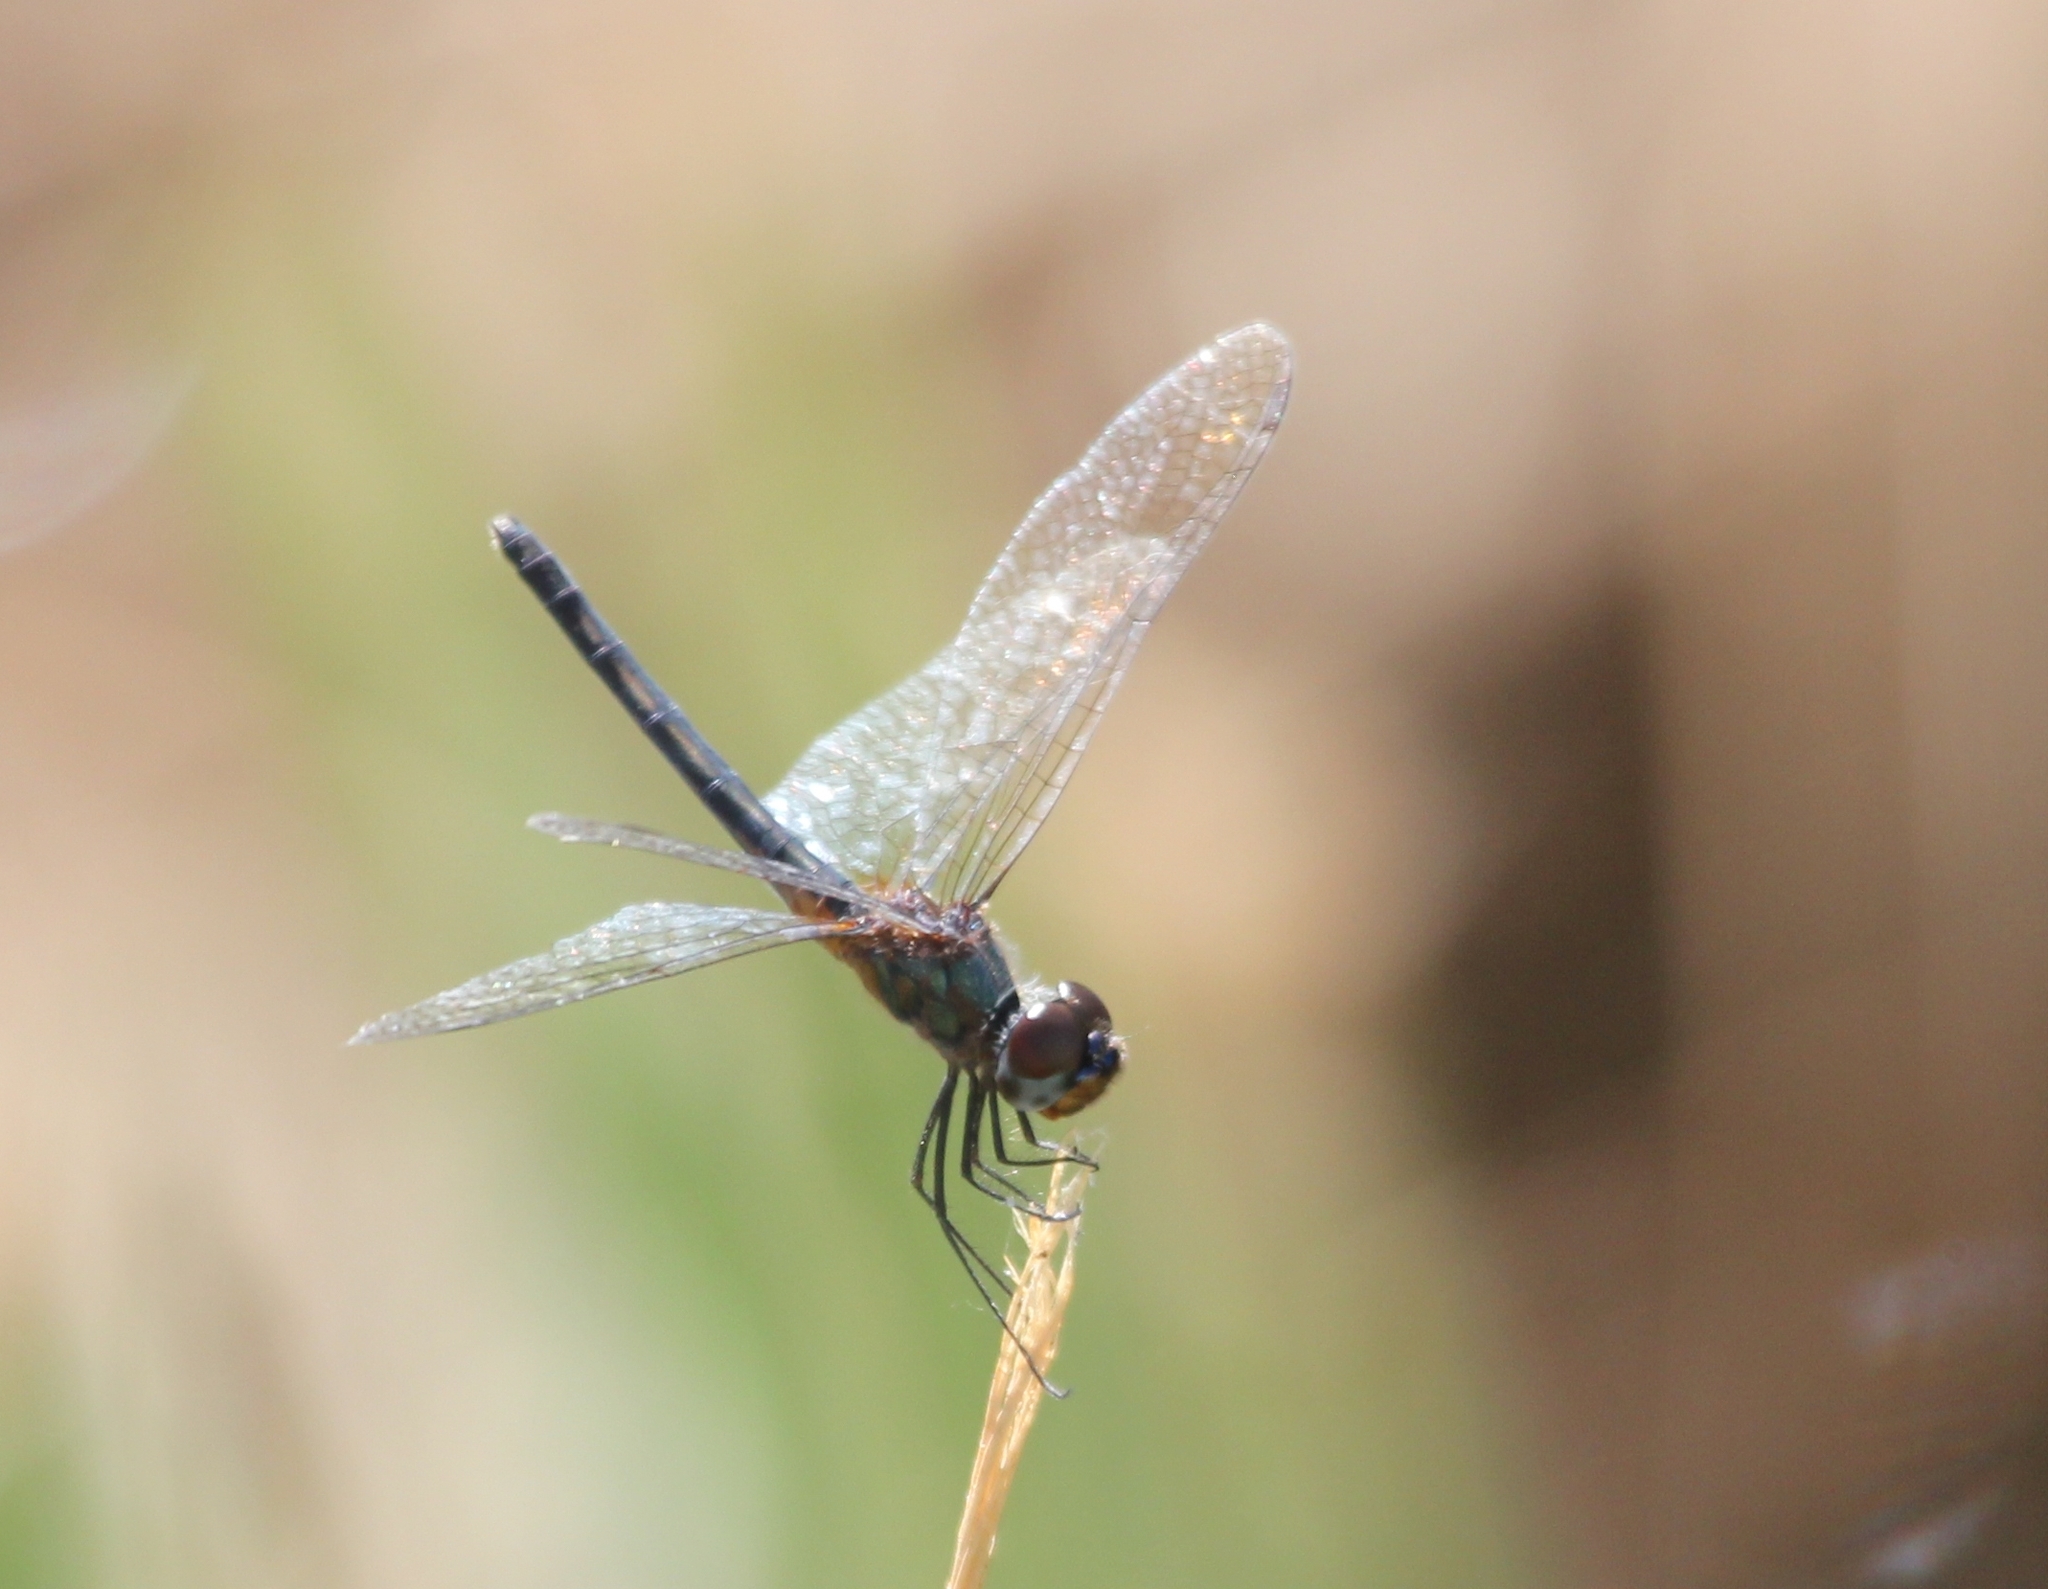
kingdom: Animalia
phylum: Arthropoda
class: Insecta
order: Odonata
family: Libellulidae
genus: Idiataphe
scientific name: Idiataphe cubensis
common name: Metallic pennant
